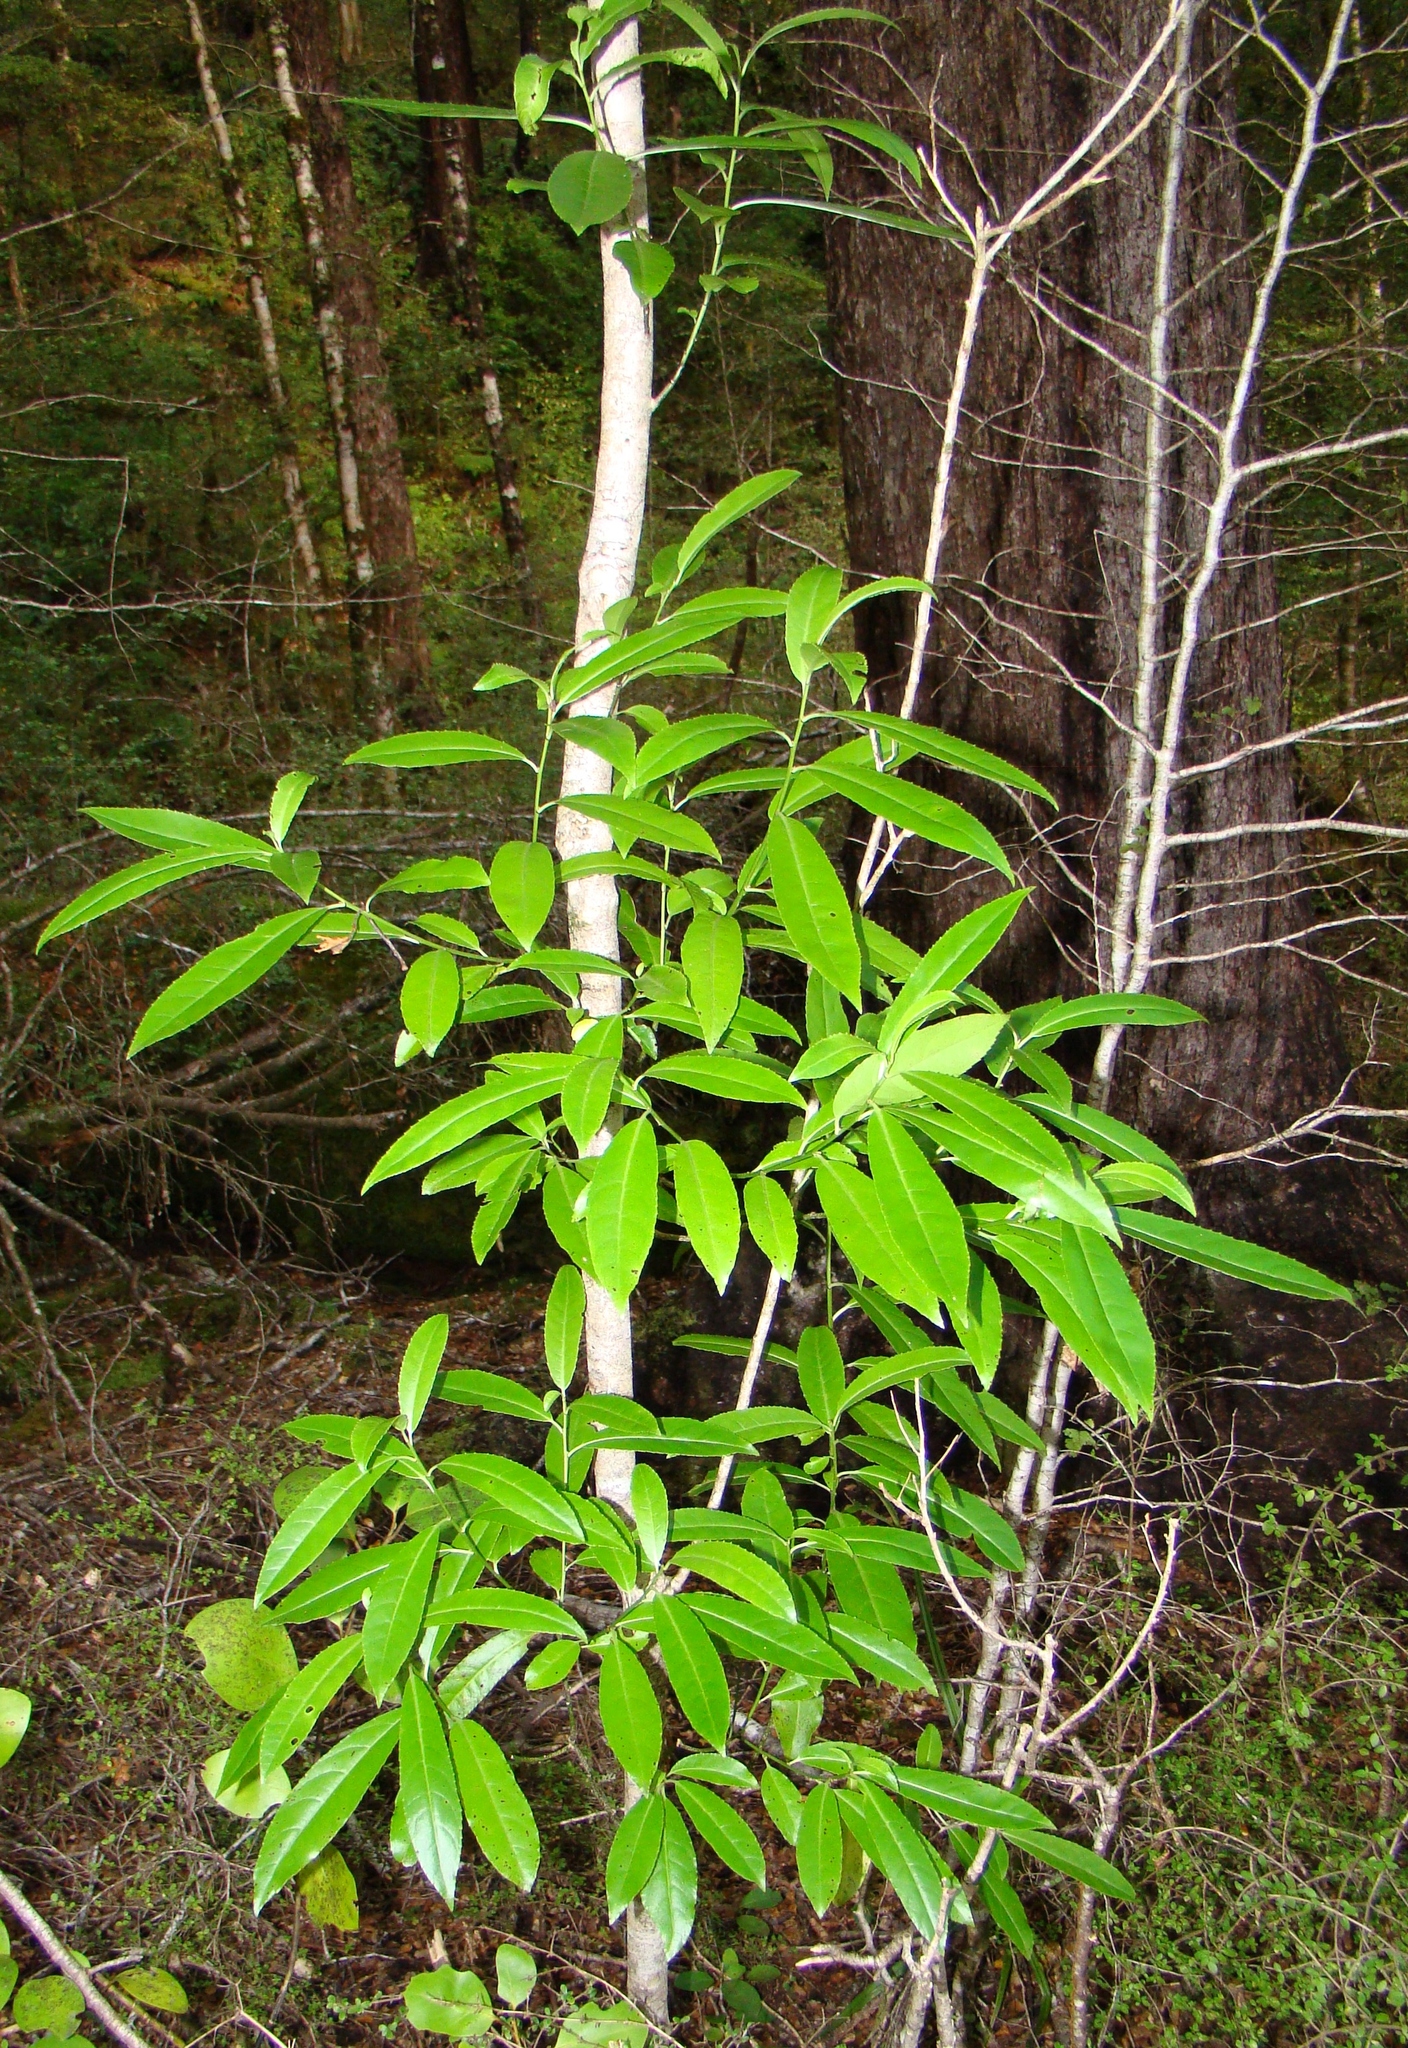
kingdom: Plantae
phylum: Tracheophyta
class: Magnoliopsida
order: Malpighiales
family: Violaceae
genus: Melicytus
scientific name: Melicytus lanceolatus
